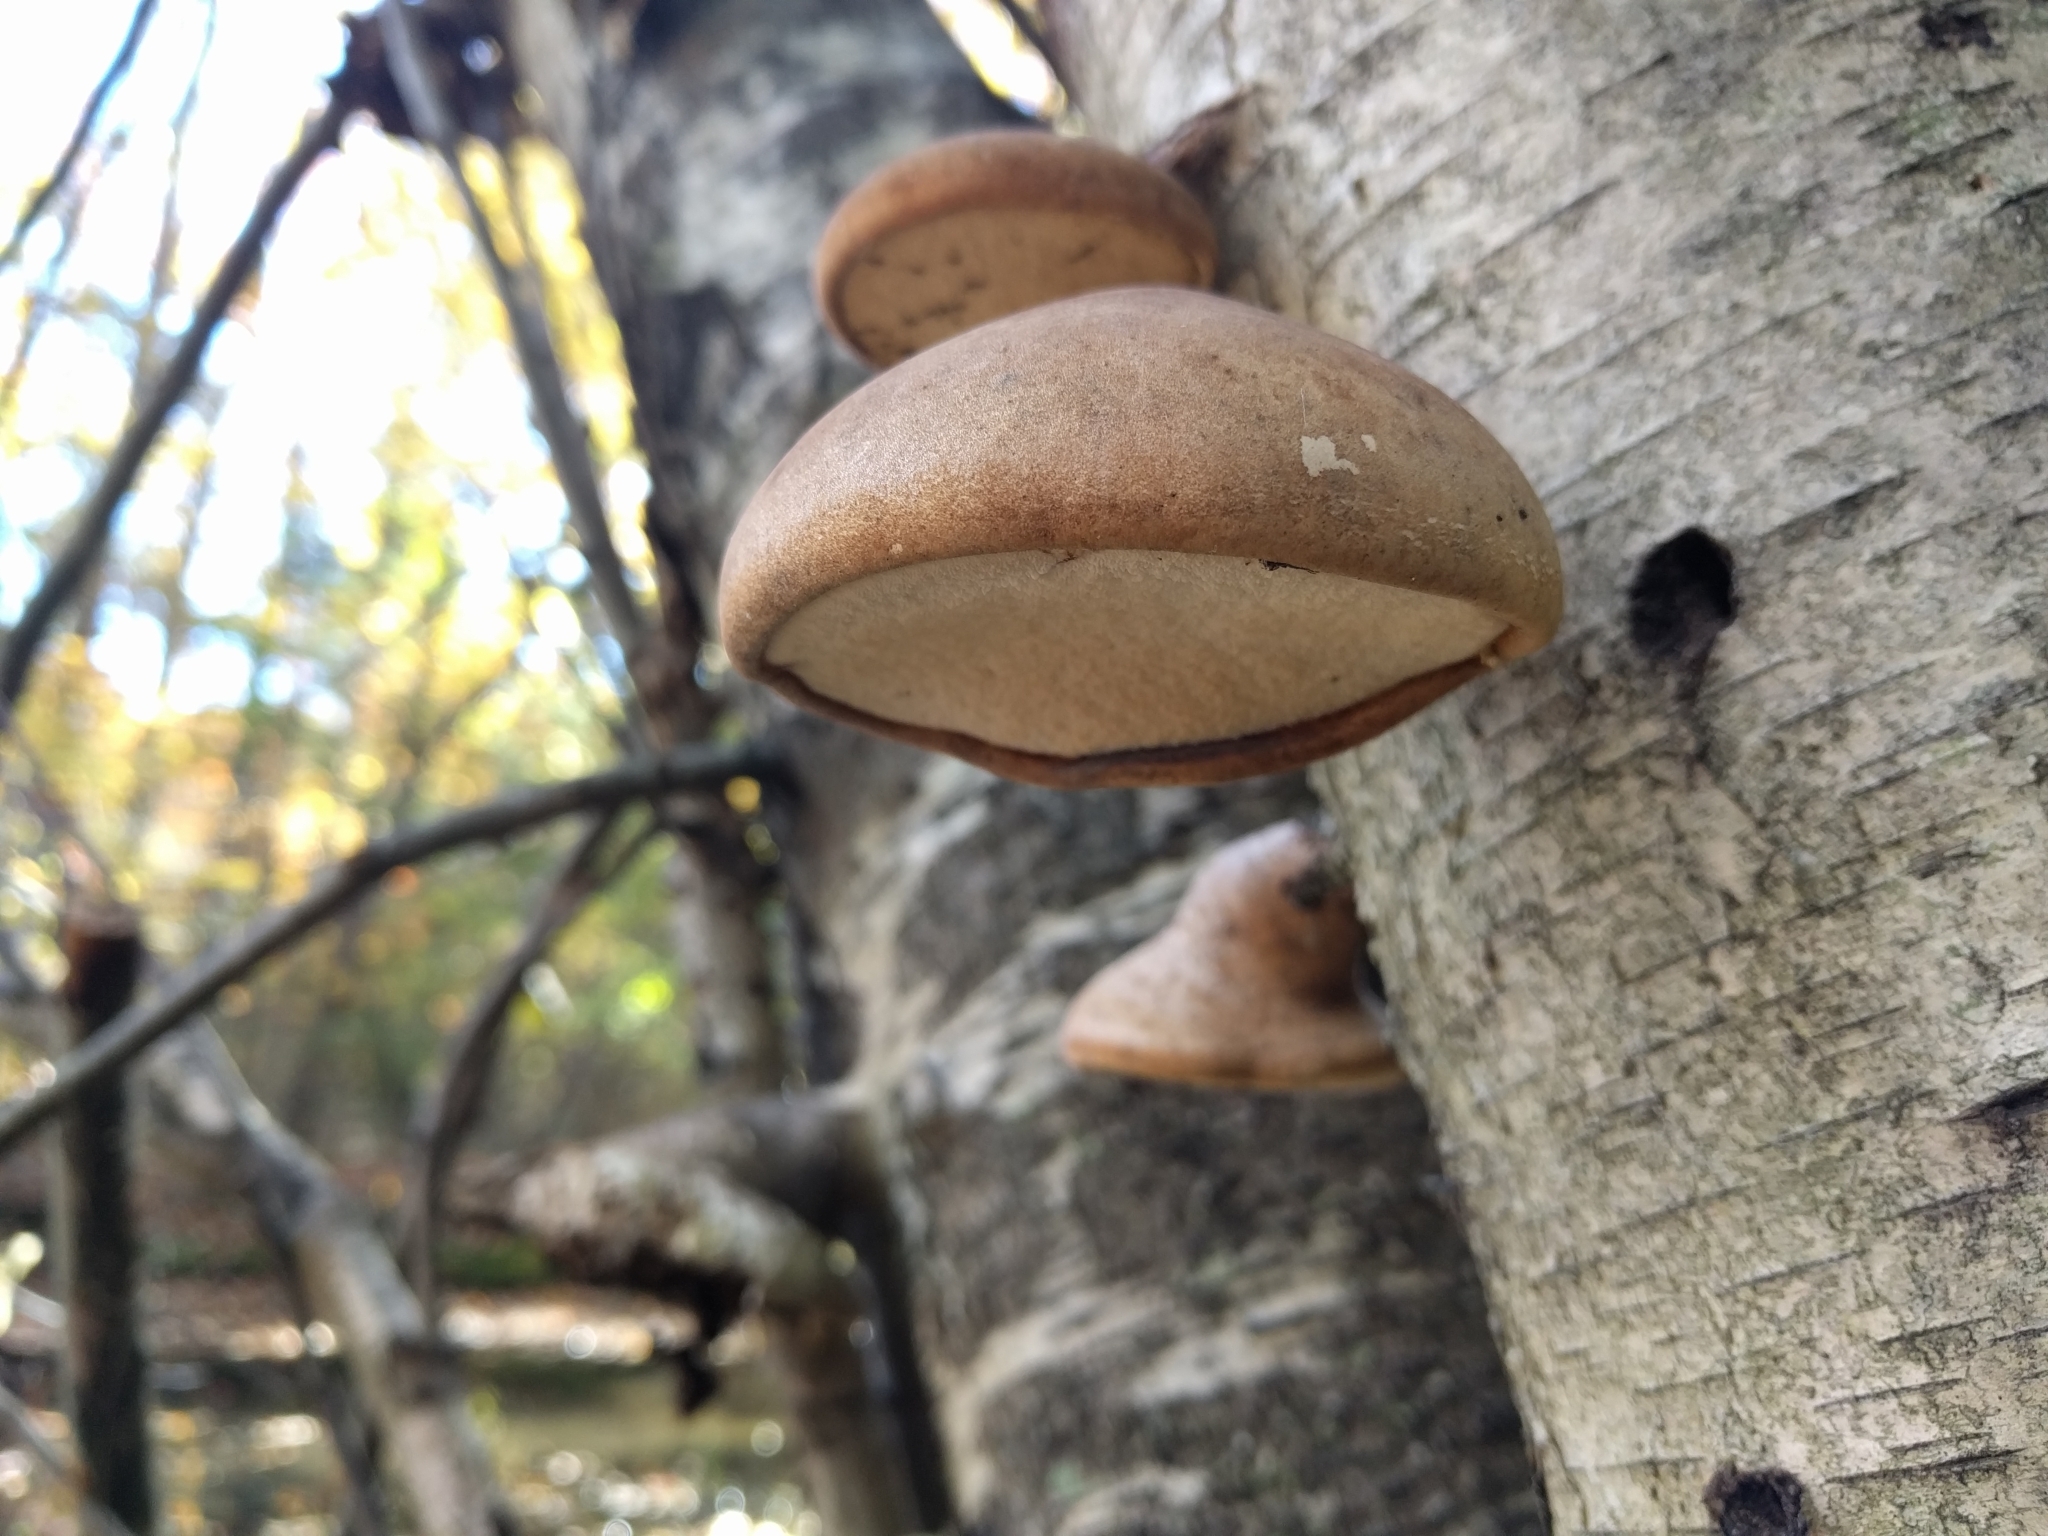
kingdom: Fungi
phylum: Basidiomycota
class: Agaricomycetes
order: Polyporales
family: Fomitopsidaceae
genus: Fomitopsis
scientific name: Fomitopsis betulina
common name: Birch polypore
